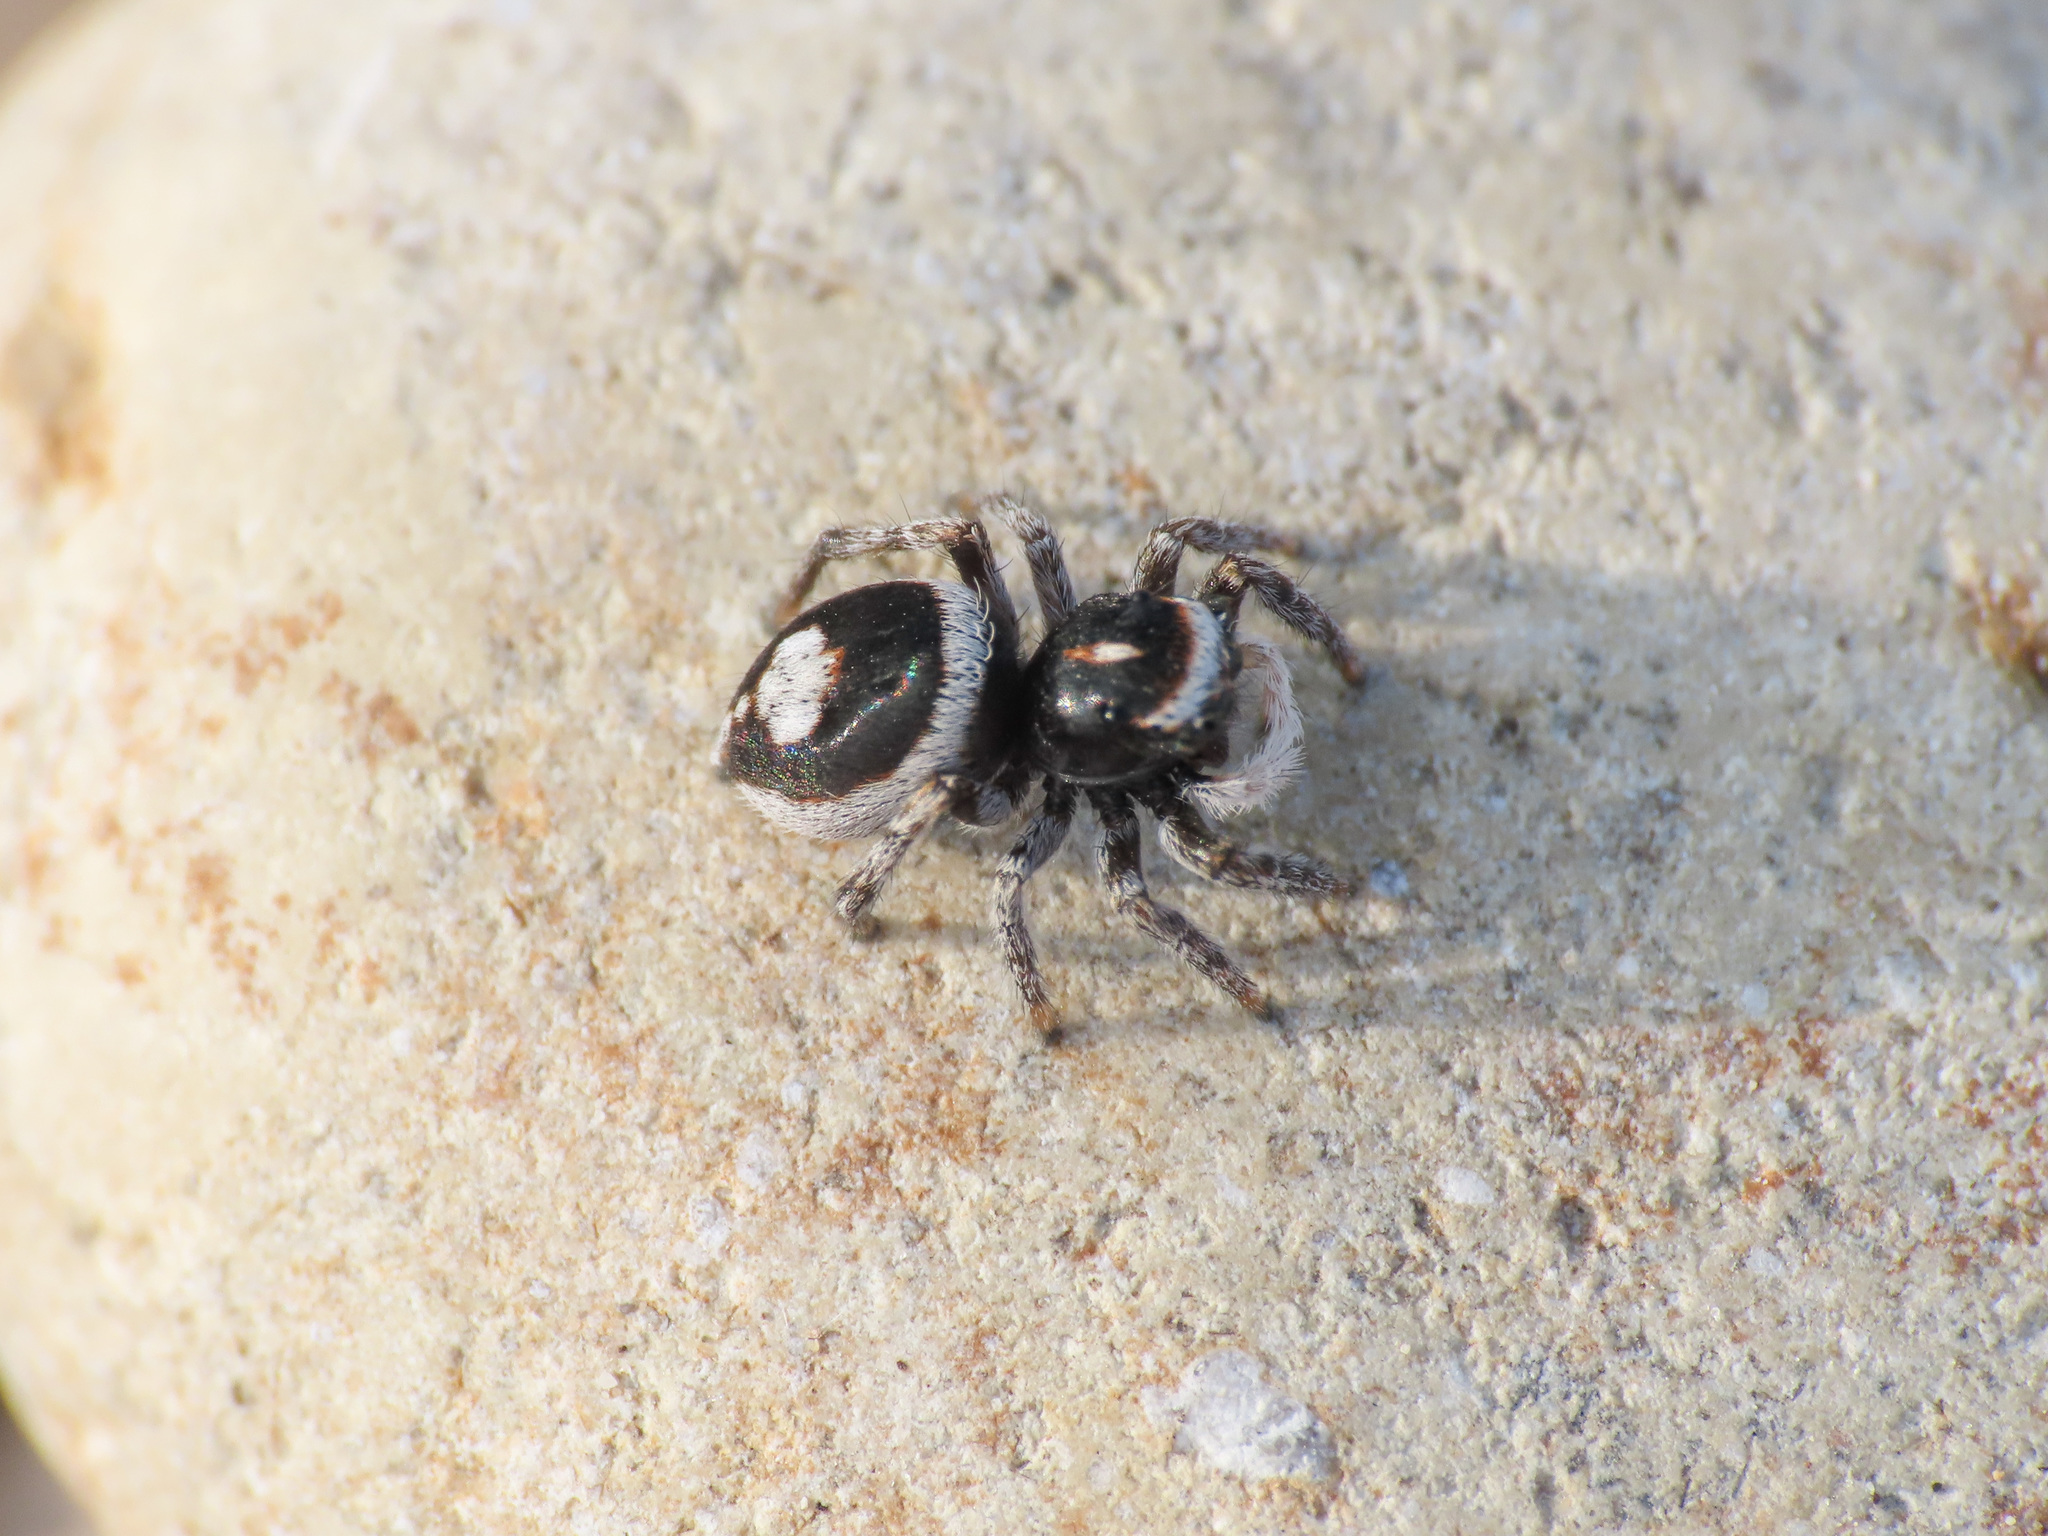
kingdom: Animalia
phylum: Arthropoda
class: Arachnida
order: Araneae
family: Salticidae
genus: Attulus
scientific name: Attulus damini
